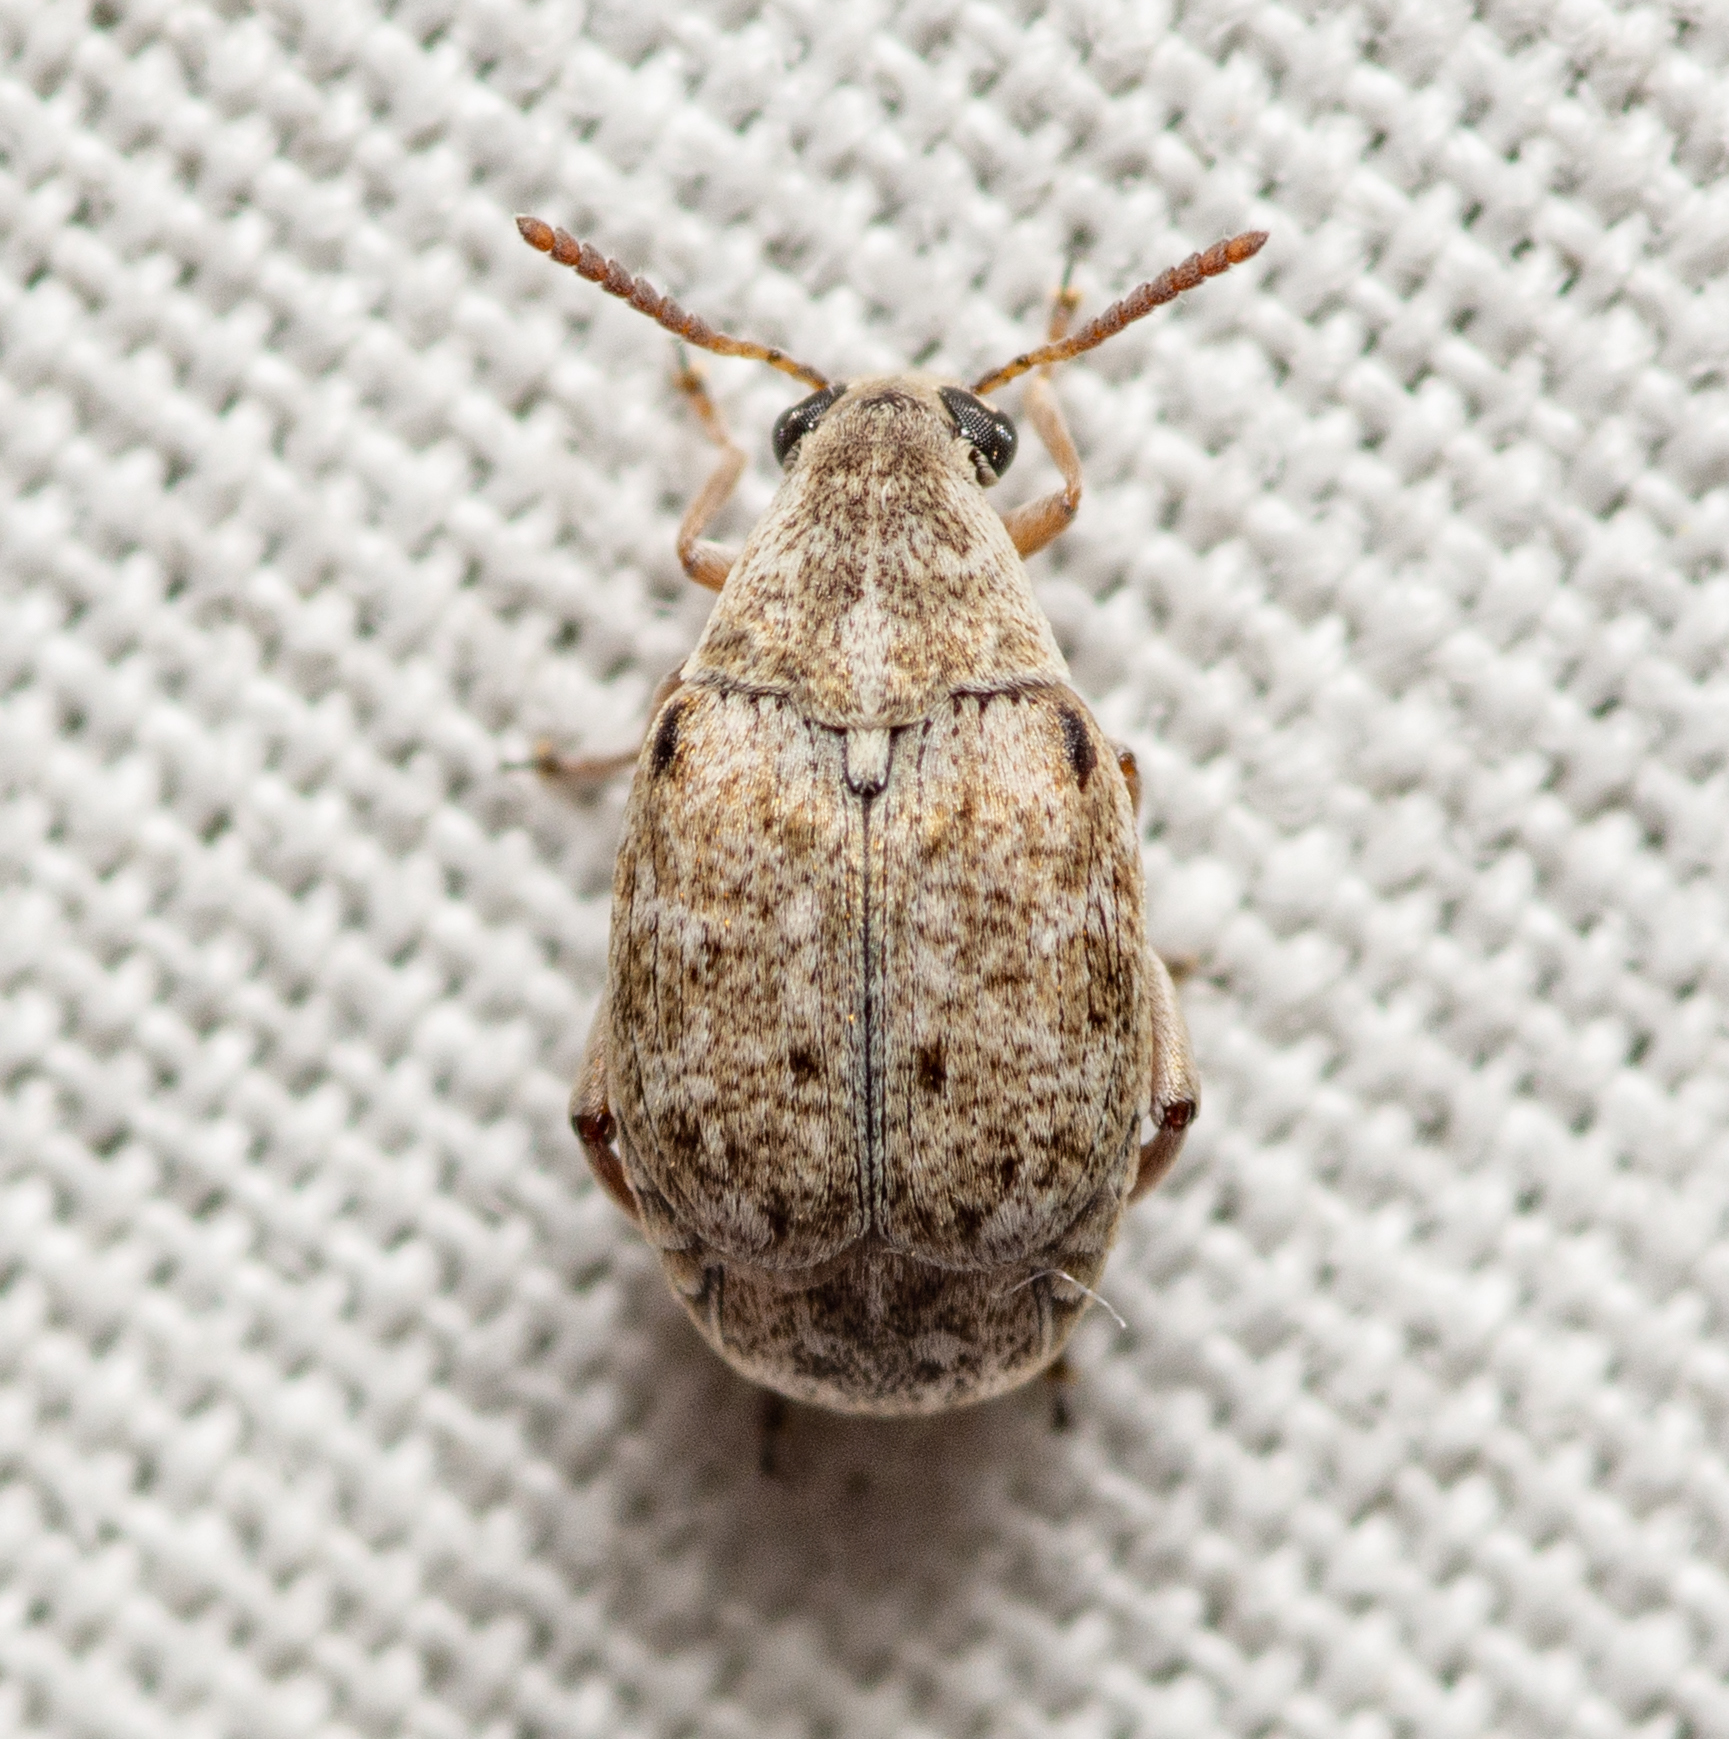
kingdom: Animalia
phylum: Arthropoda
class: Insecta
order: Coleoptera
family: Chrysomelidae
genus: Algarobius
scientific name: Algarobius bottimeri
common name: Kiawe bruchid
